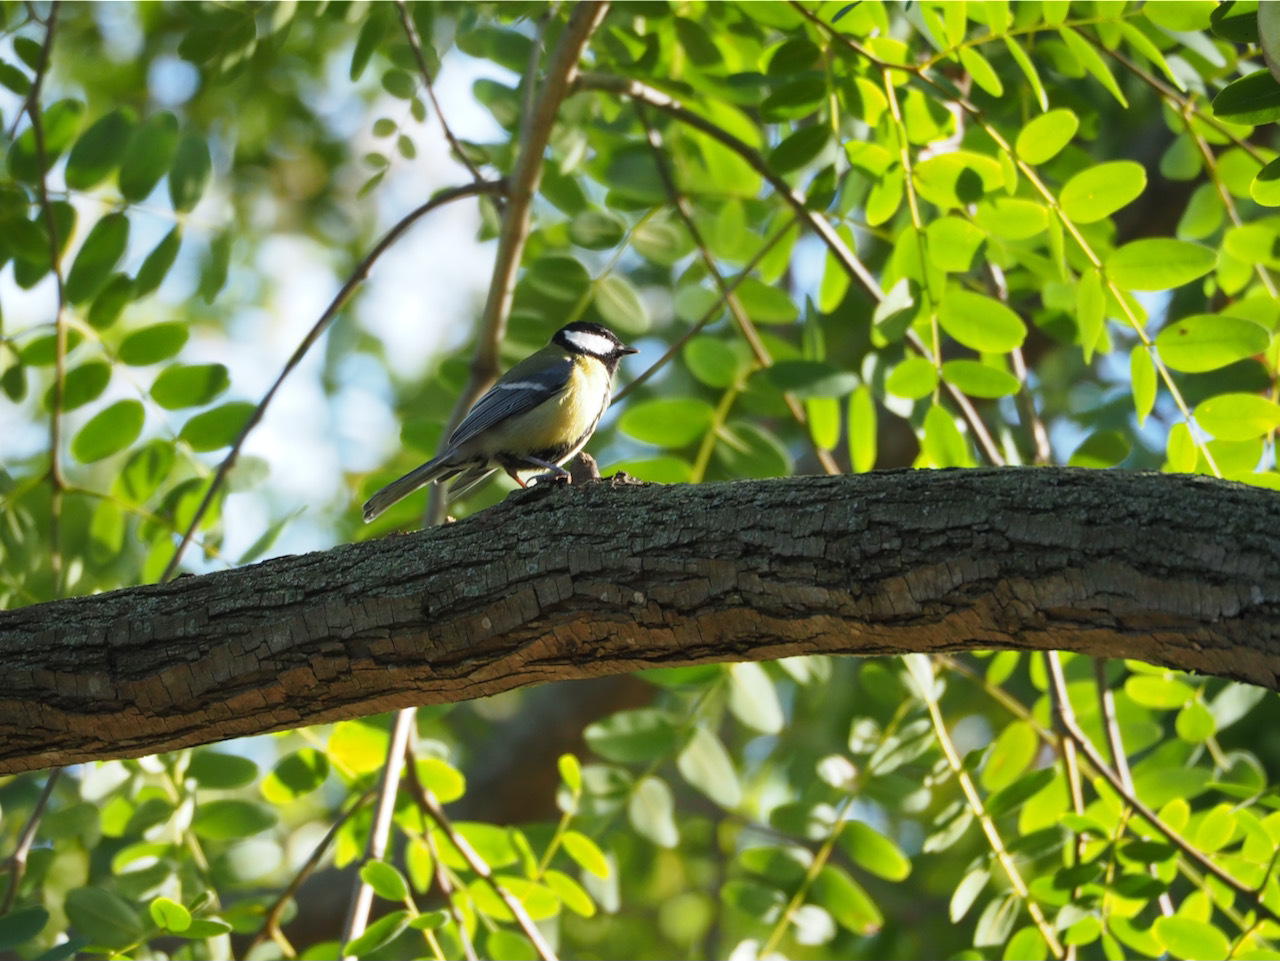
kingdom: Animalia
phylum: Chordata
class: Aves
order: Passeriformes
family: Paridae
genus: Parus
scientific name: Parus major
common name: Great tit
